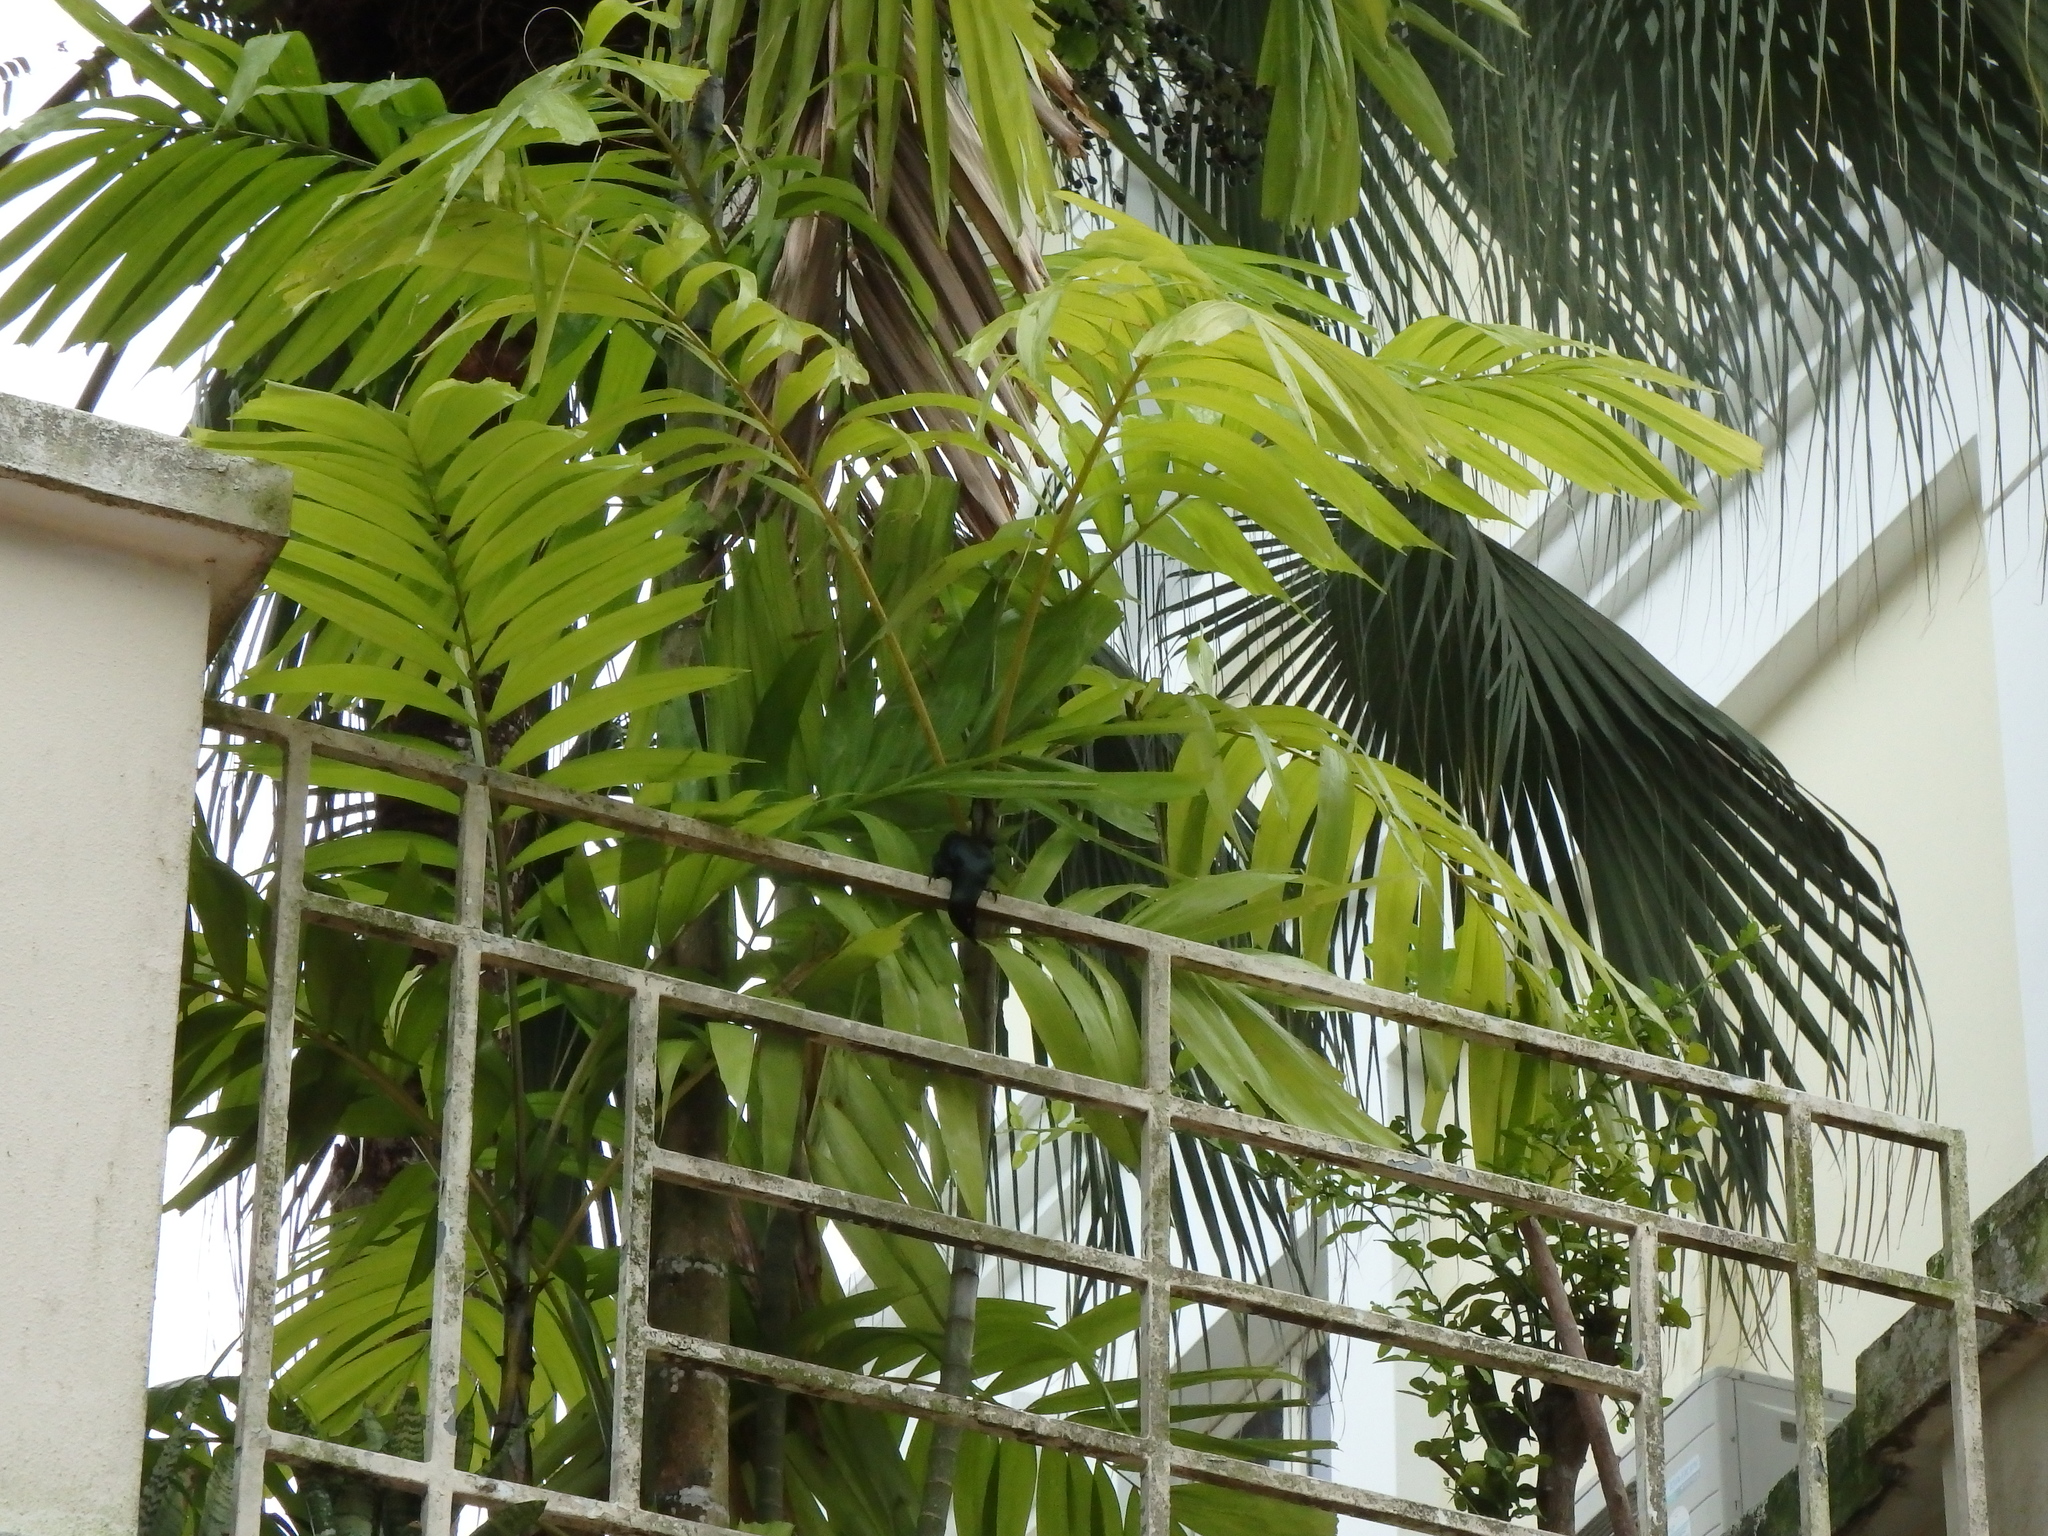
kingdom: Animalia
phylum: Chordata
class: Aves
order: Passeriformes
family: Sturnidae
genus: Aplonis
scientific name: Aplonis panayensis
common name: Asian glossy starling
